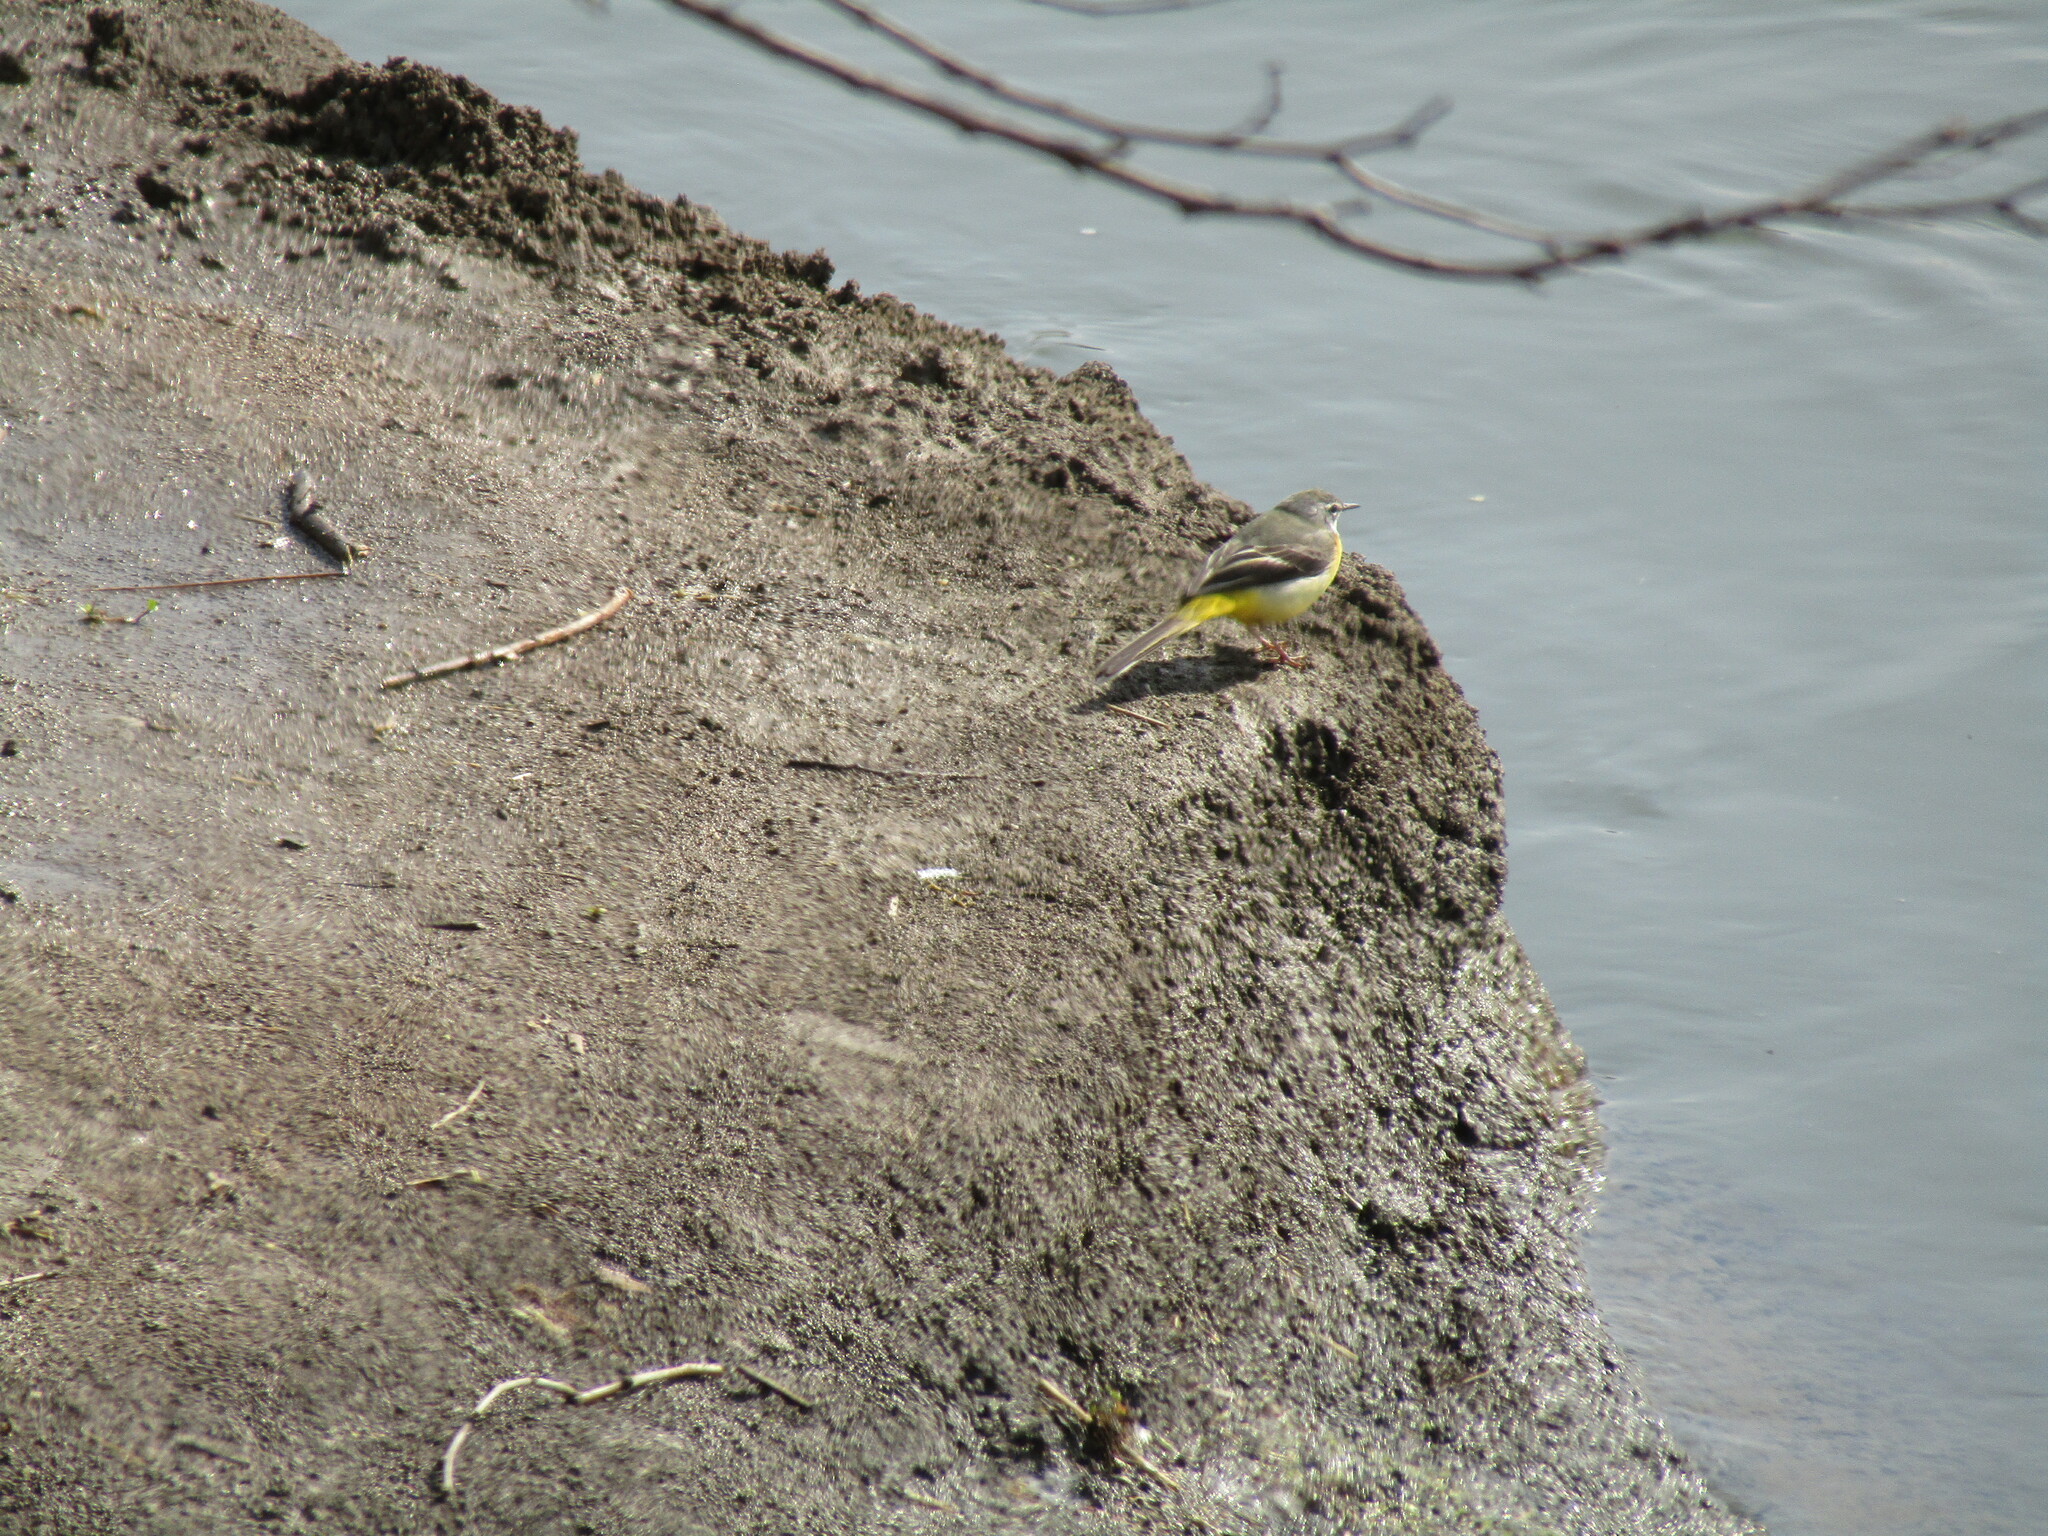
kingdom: Animalia
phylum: Chordata
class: Aves
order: Passeriformes
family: Motacillidae
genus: Motacilla
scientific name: Motacilla cinerea
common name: Grey wagtail
